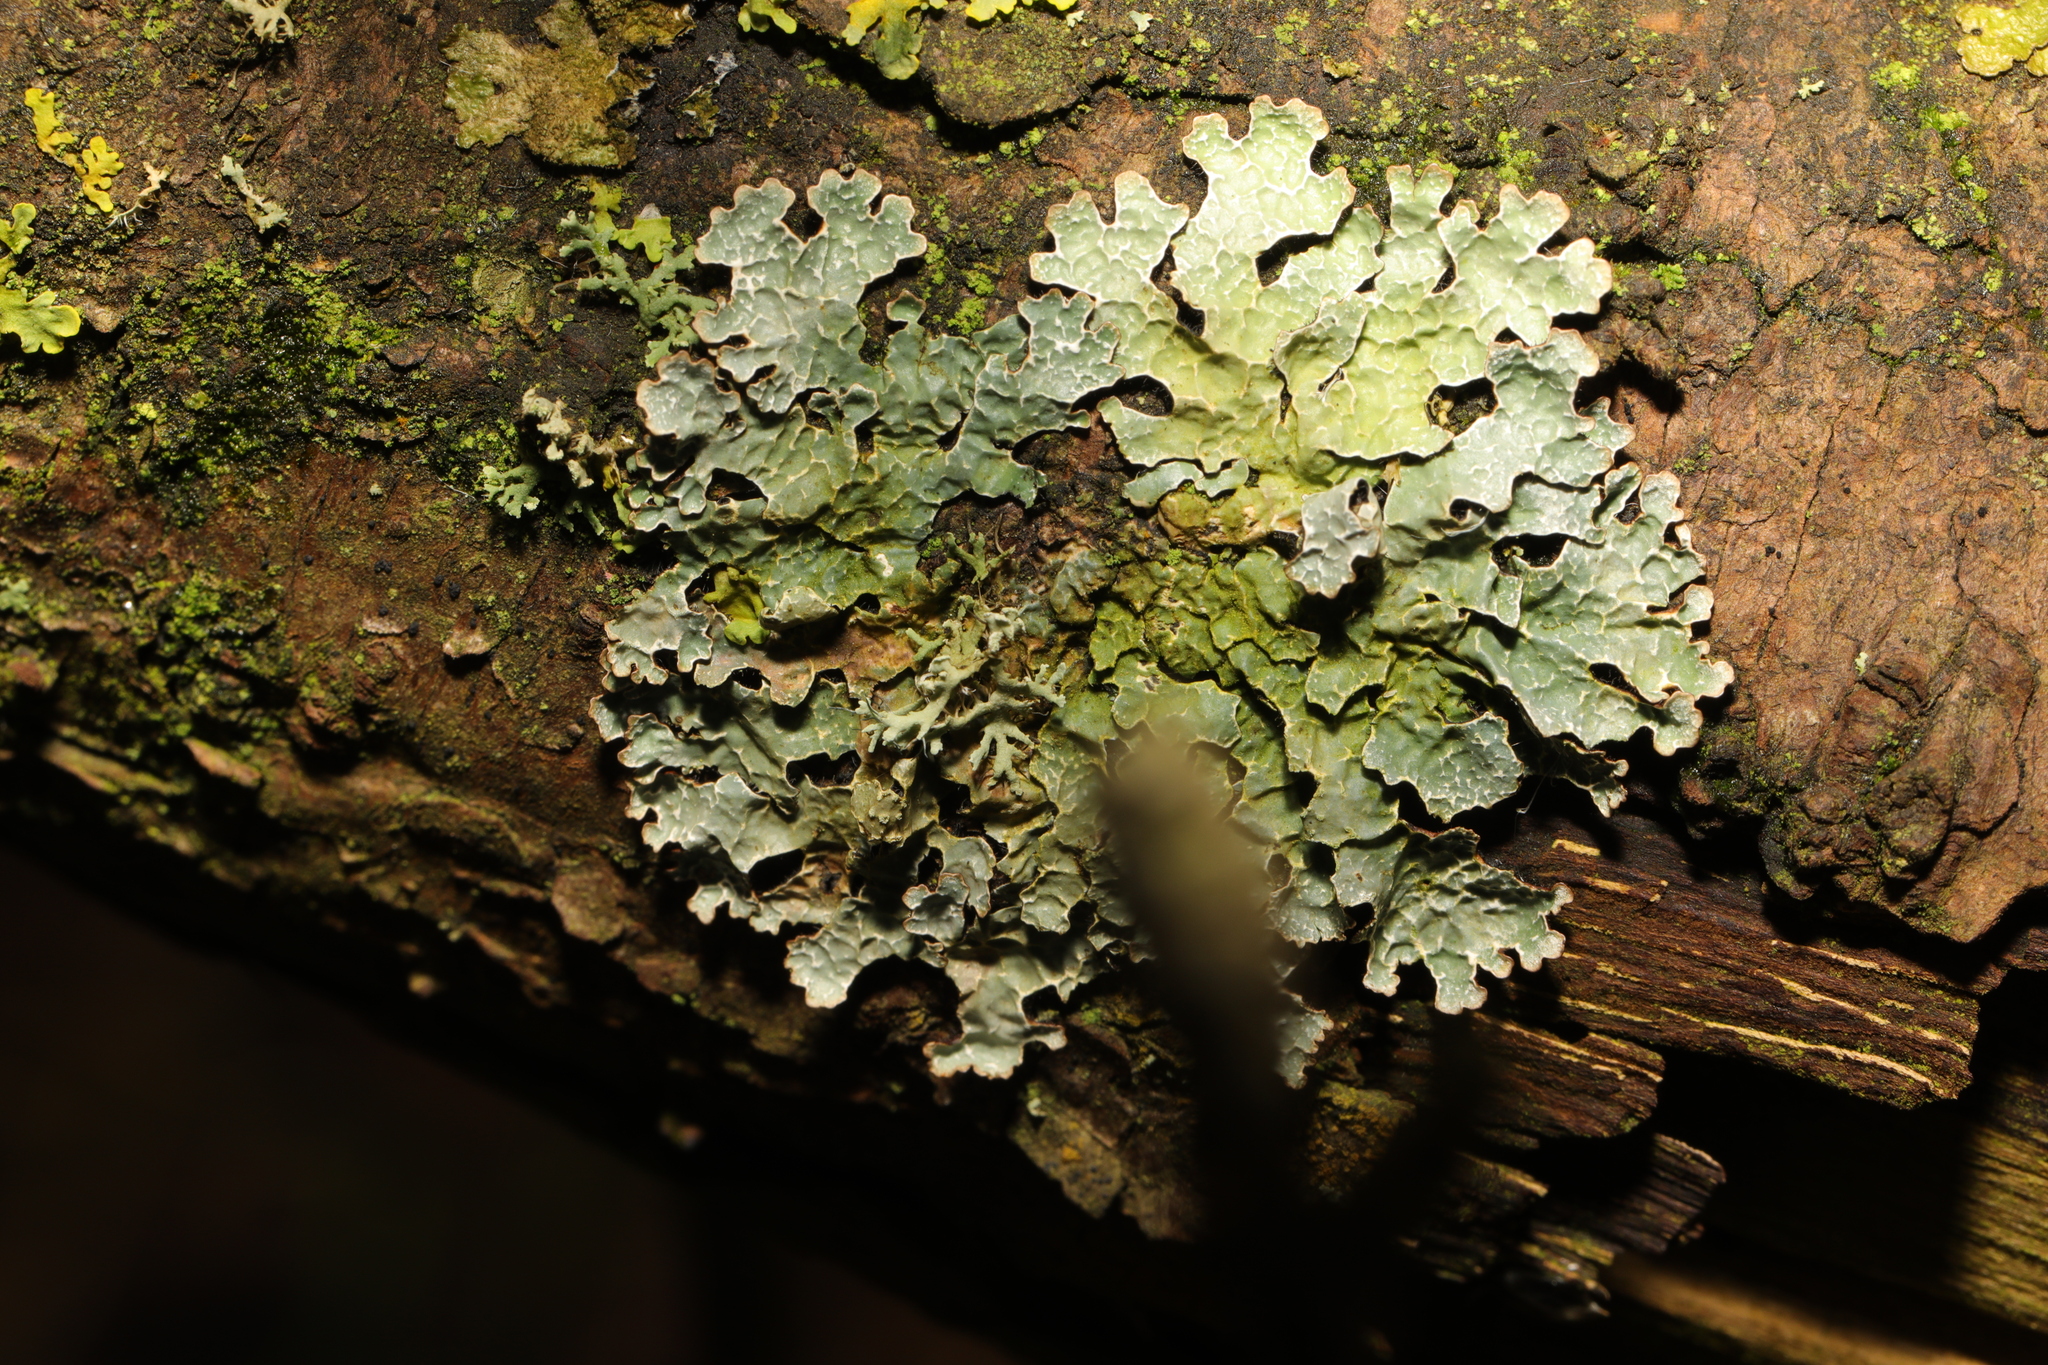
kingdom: Fungi
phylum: Ascomycota
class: Lecanoromycetes
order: Lecanorales
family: Parmeliaceae
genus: Parmelia
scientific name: Parmelia sulcata
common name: Netted shield lichen
